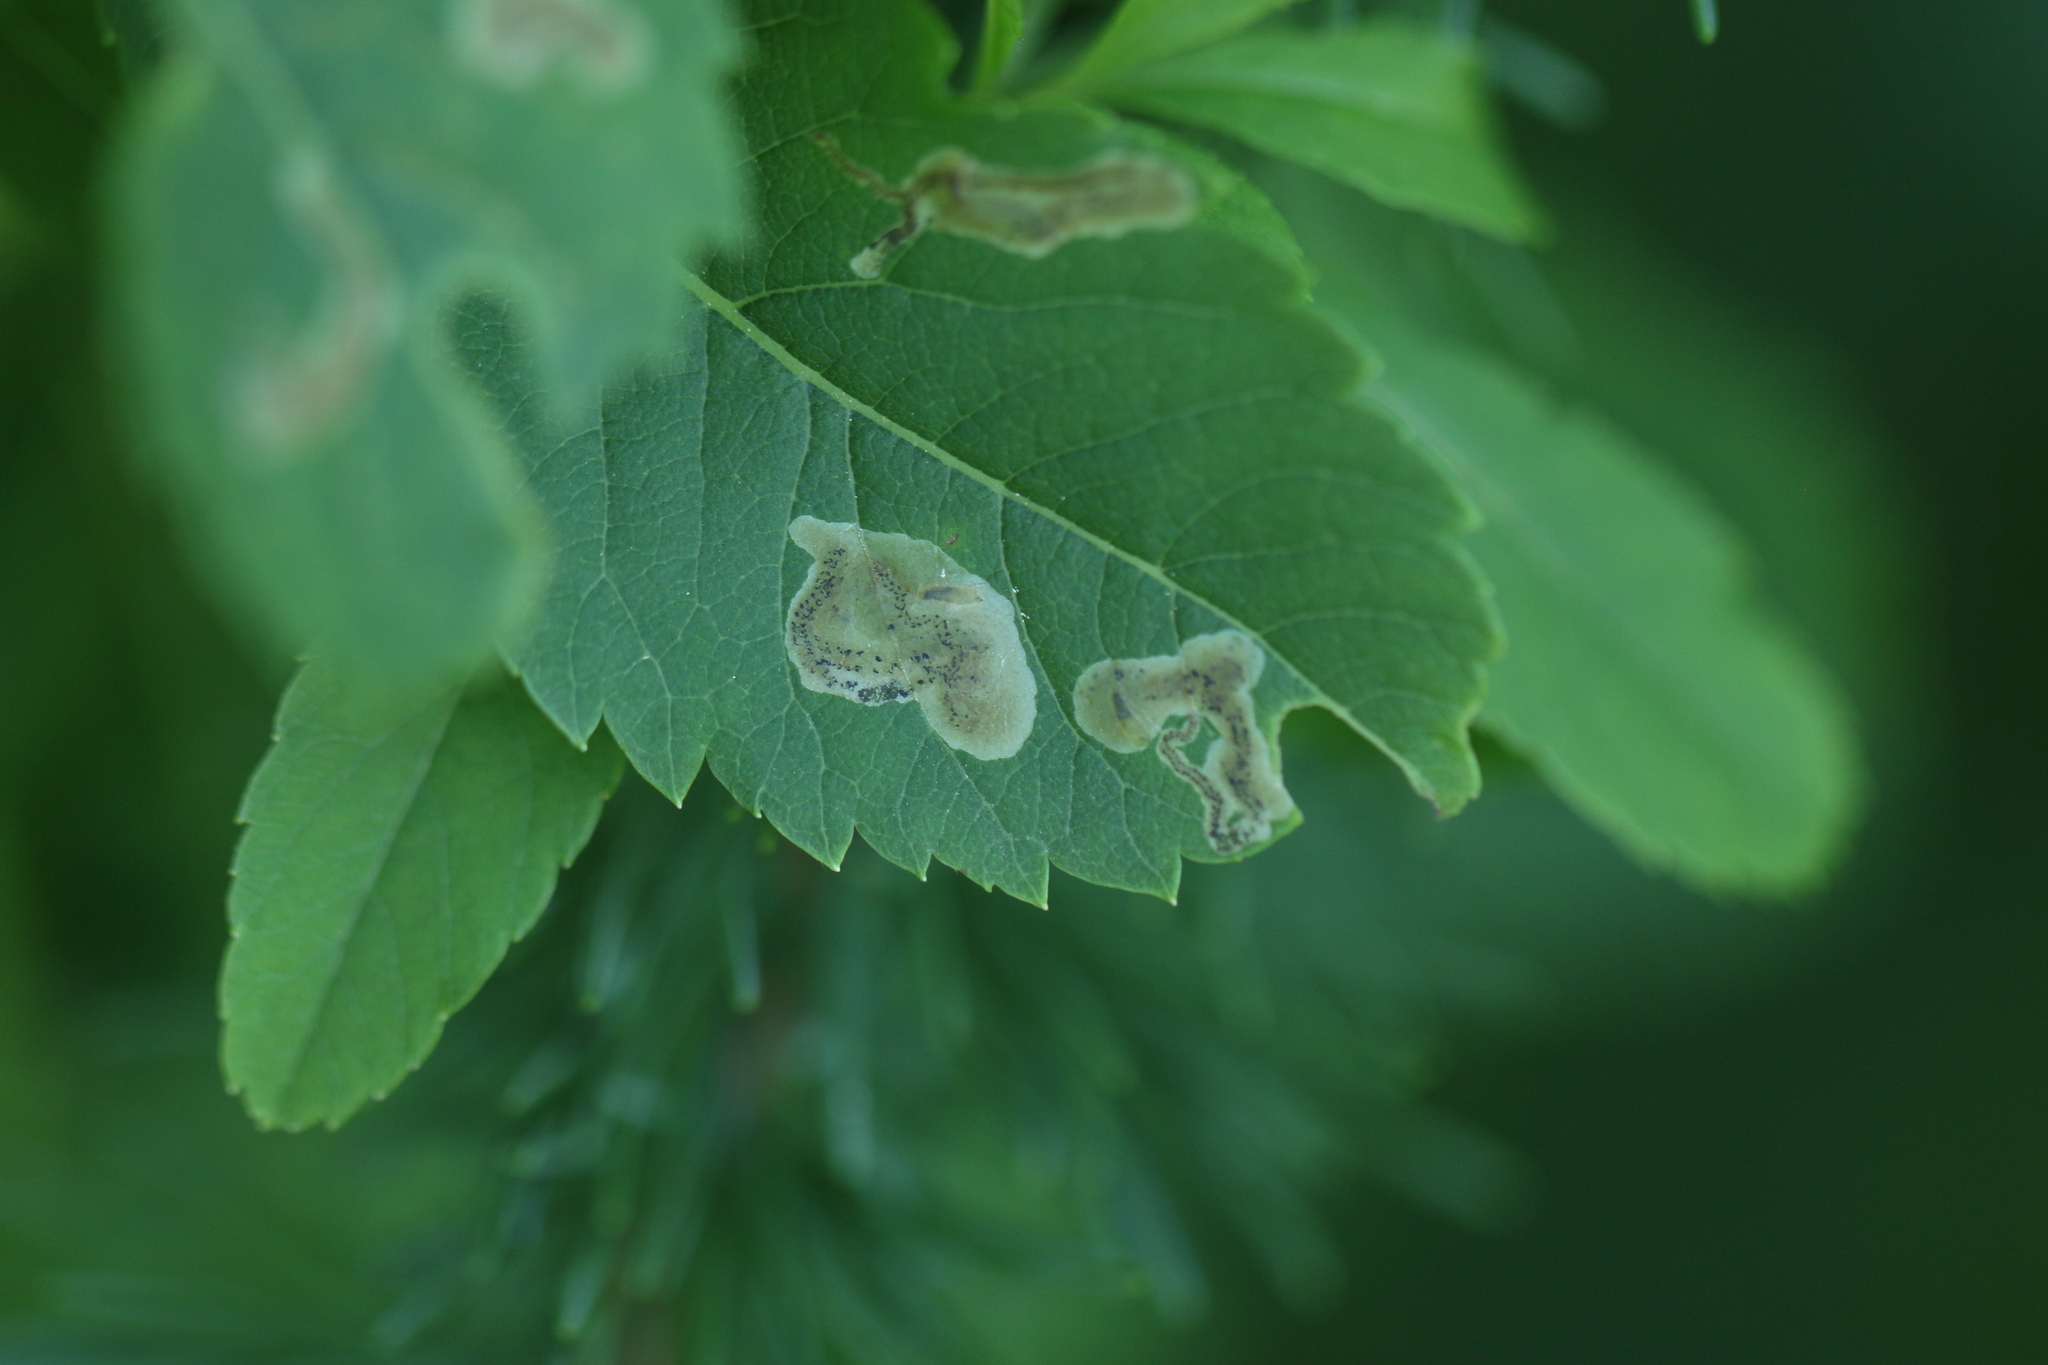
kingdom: Animalia
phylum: Arthropoda
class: Insecta
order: Diptera
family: Agromyzidae
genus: Agromyza
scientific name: Agromyza valdorensis
